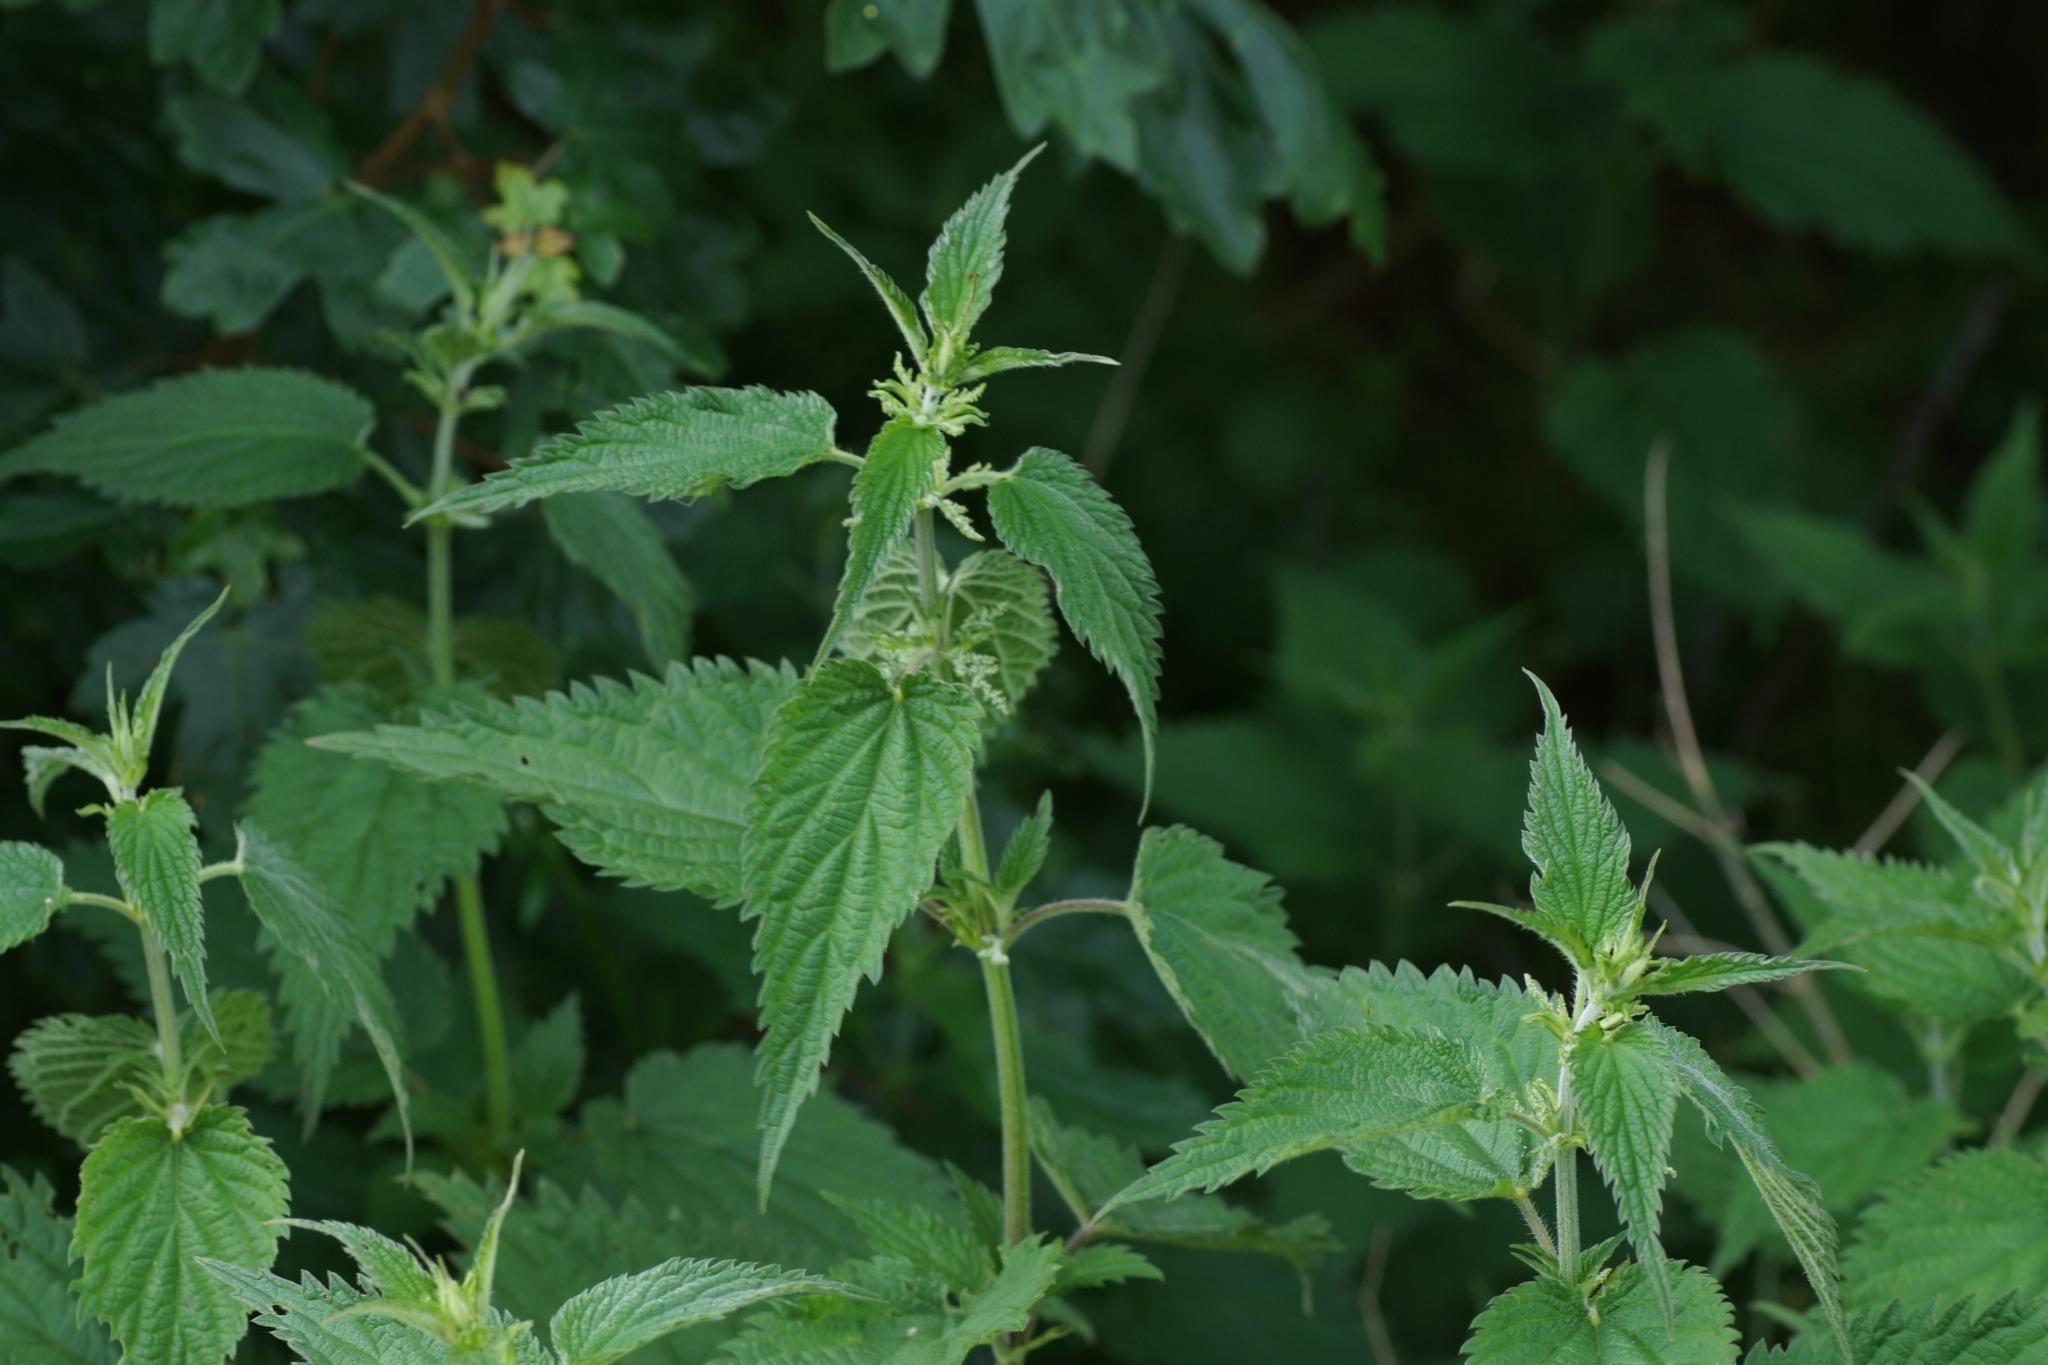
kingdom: Plantae
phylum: Tracheophyta
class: Magnoliopsida
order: Rosales
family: Urticaceae
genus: Urtica
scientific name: Urtica dioica
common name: Common nettle
